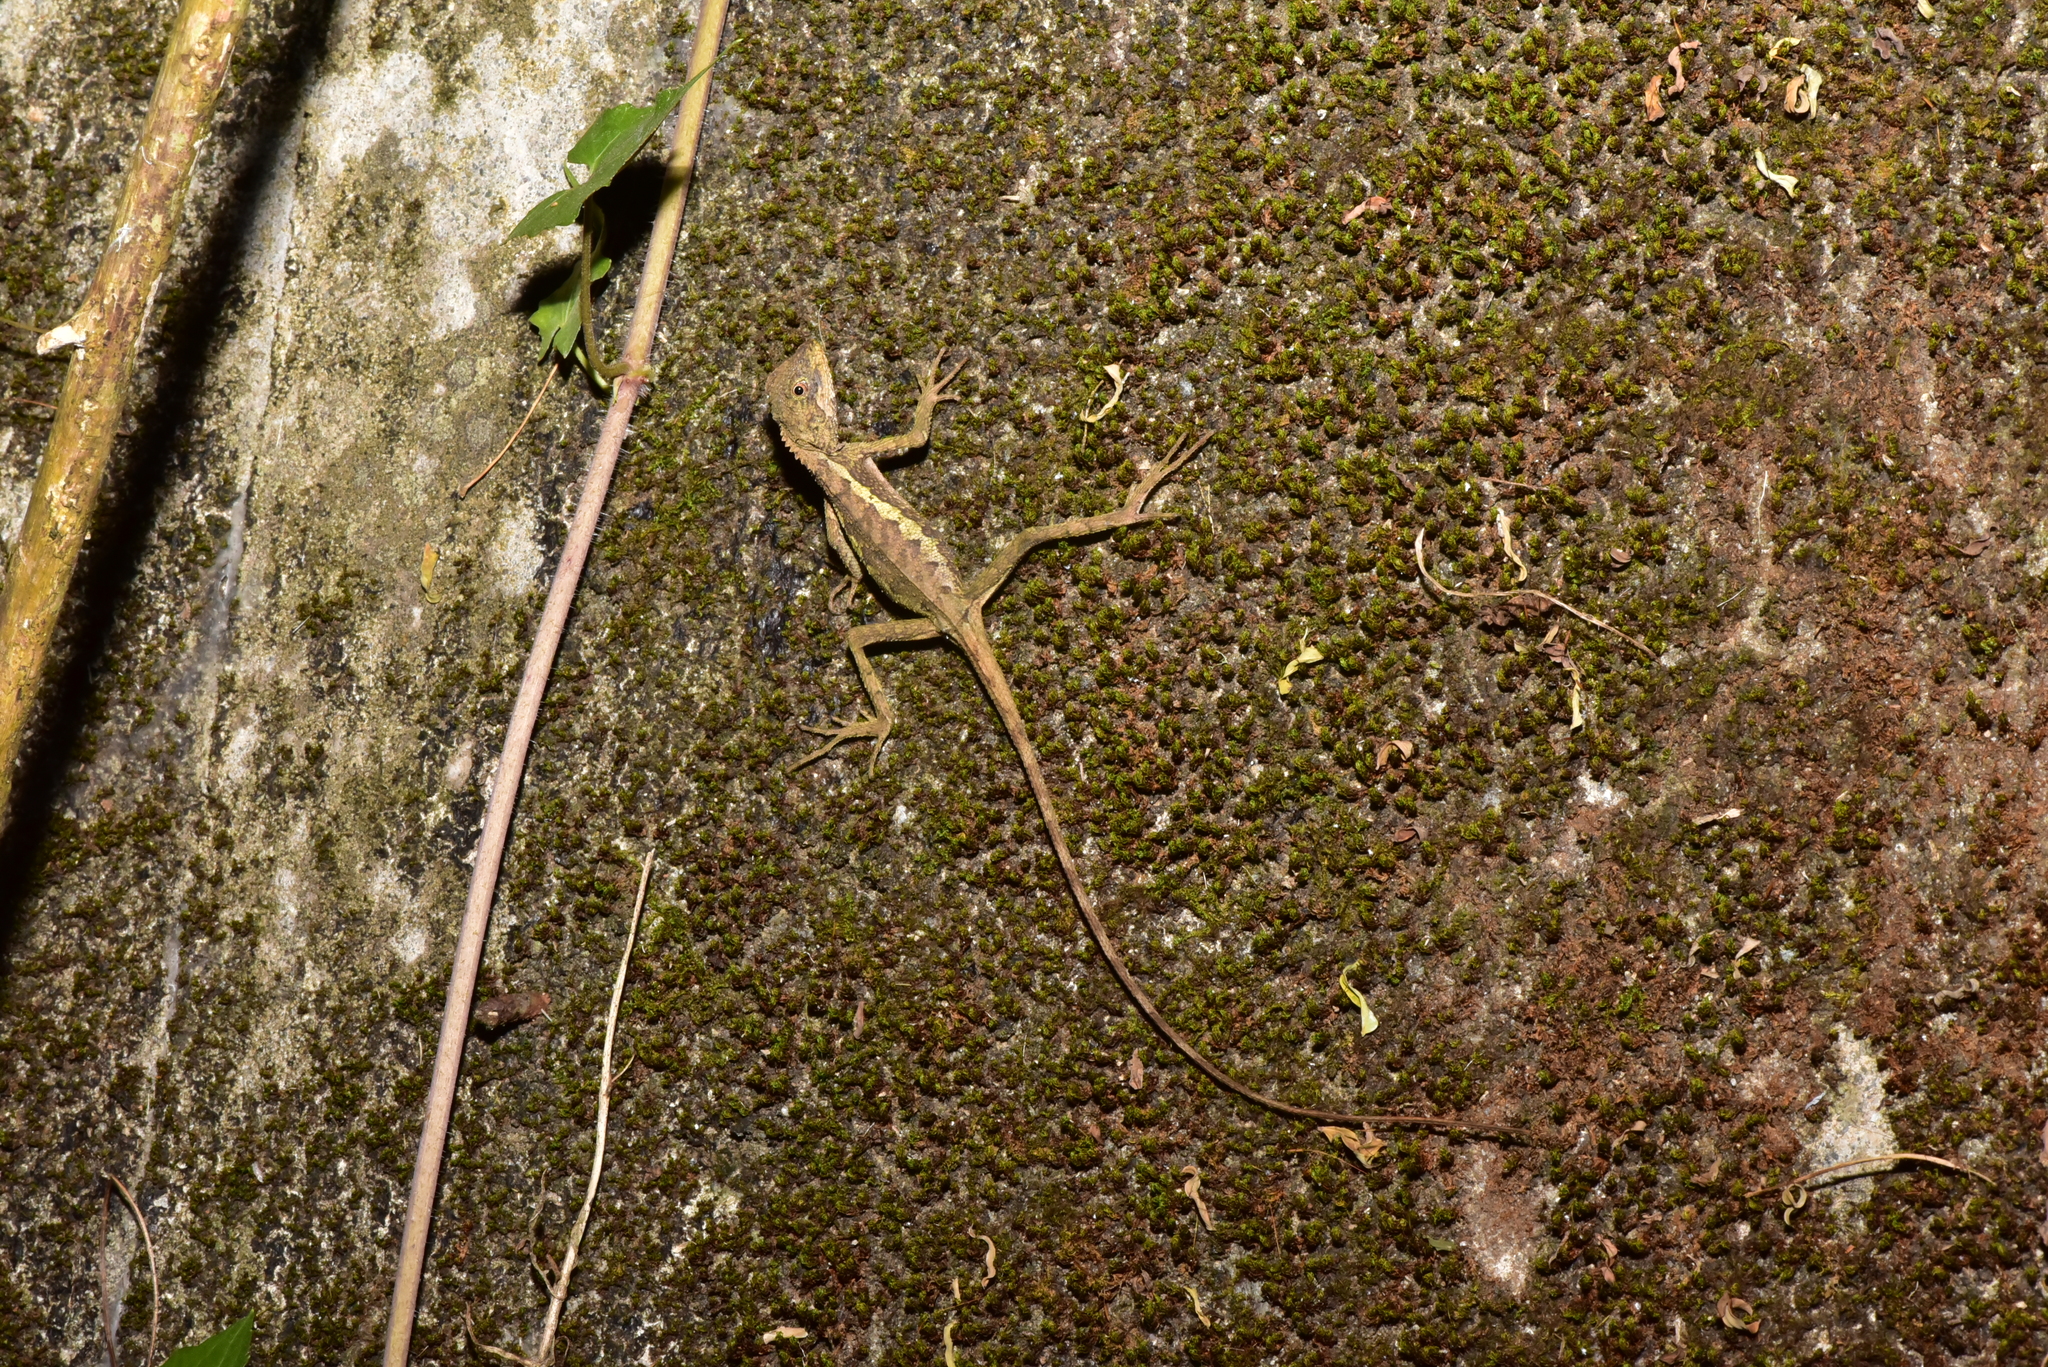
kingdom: Animalia
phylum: Chordata
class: Squamata
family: Agamidae
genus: Diploderma
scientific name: Diploderma swinhonis
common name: Taiwan japalure
